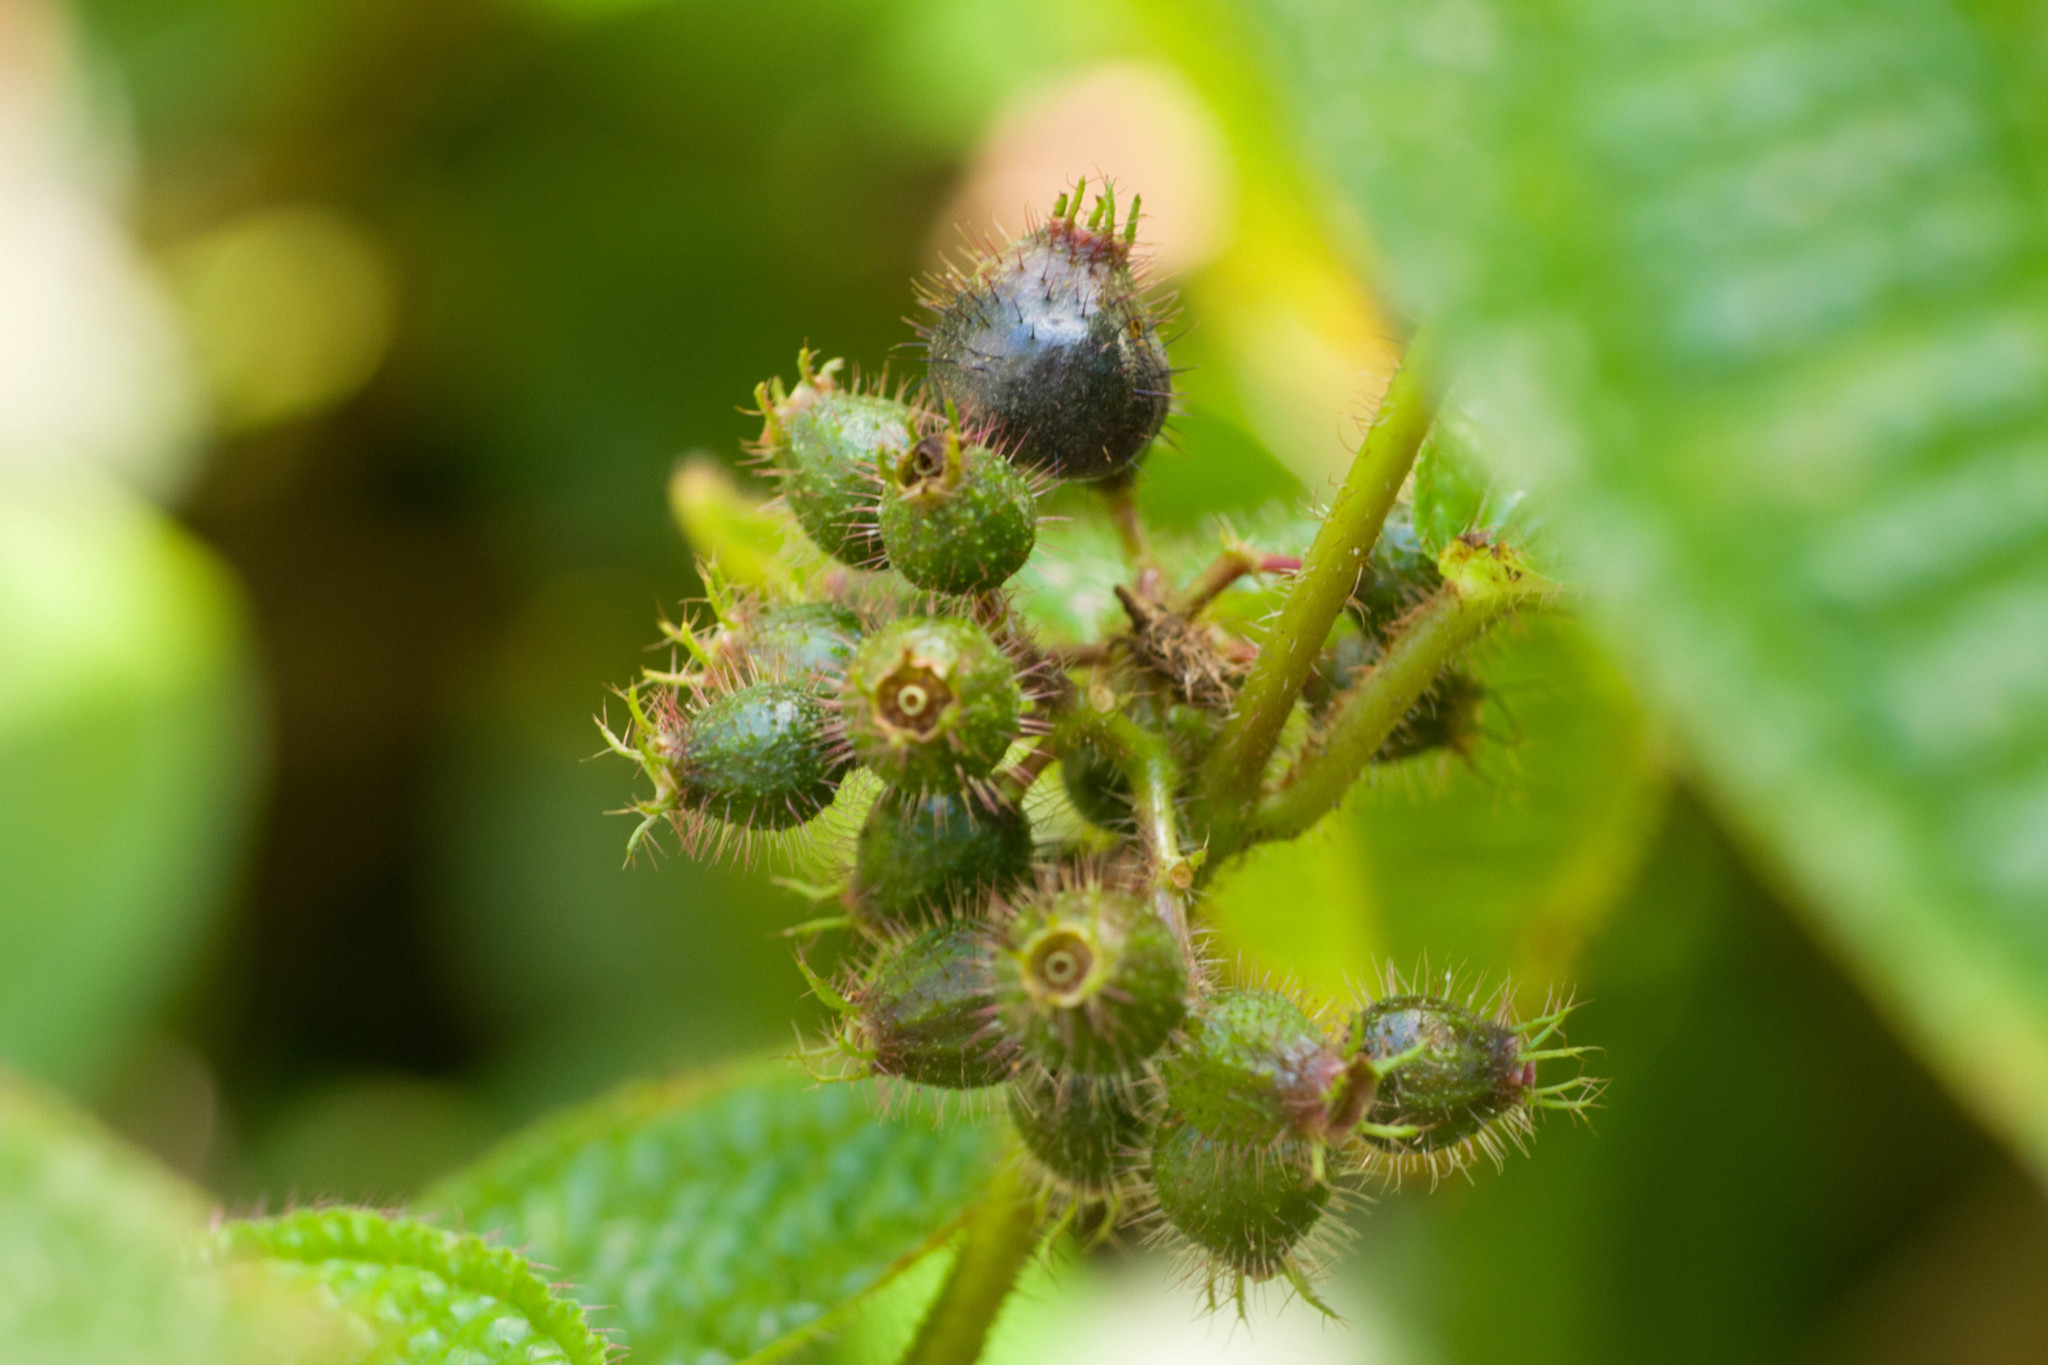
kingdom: Plantae
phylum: Tracheophyta
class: Magnoliopsida
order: Myrtales
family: Melastomataceae
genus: Miconia
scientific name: Miconia crenata
